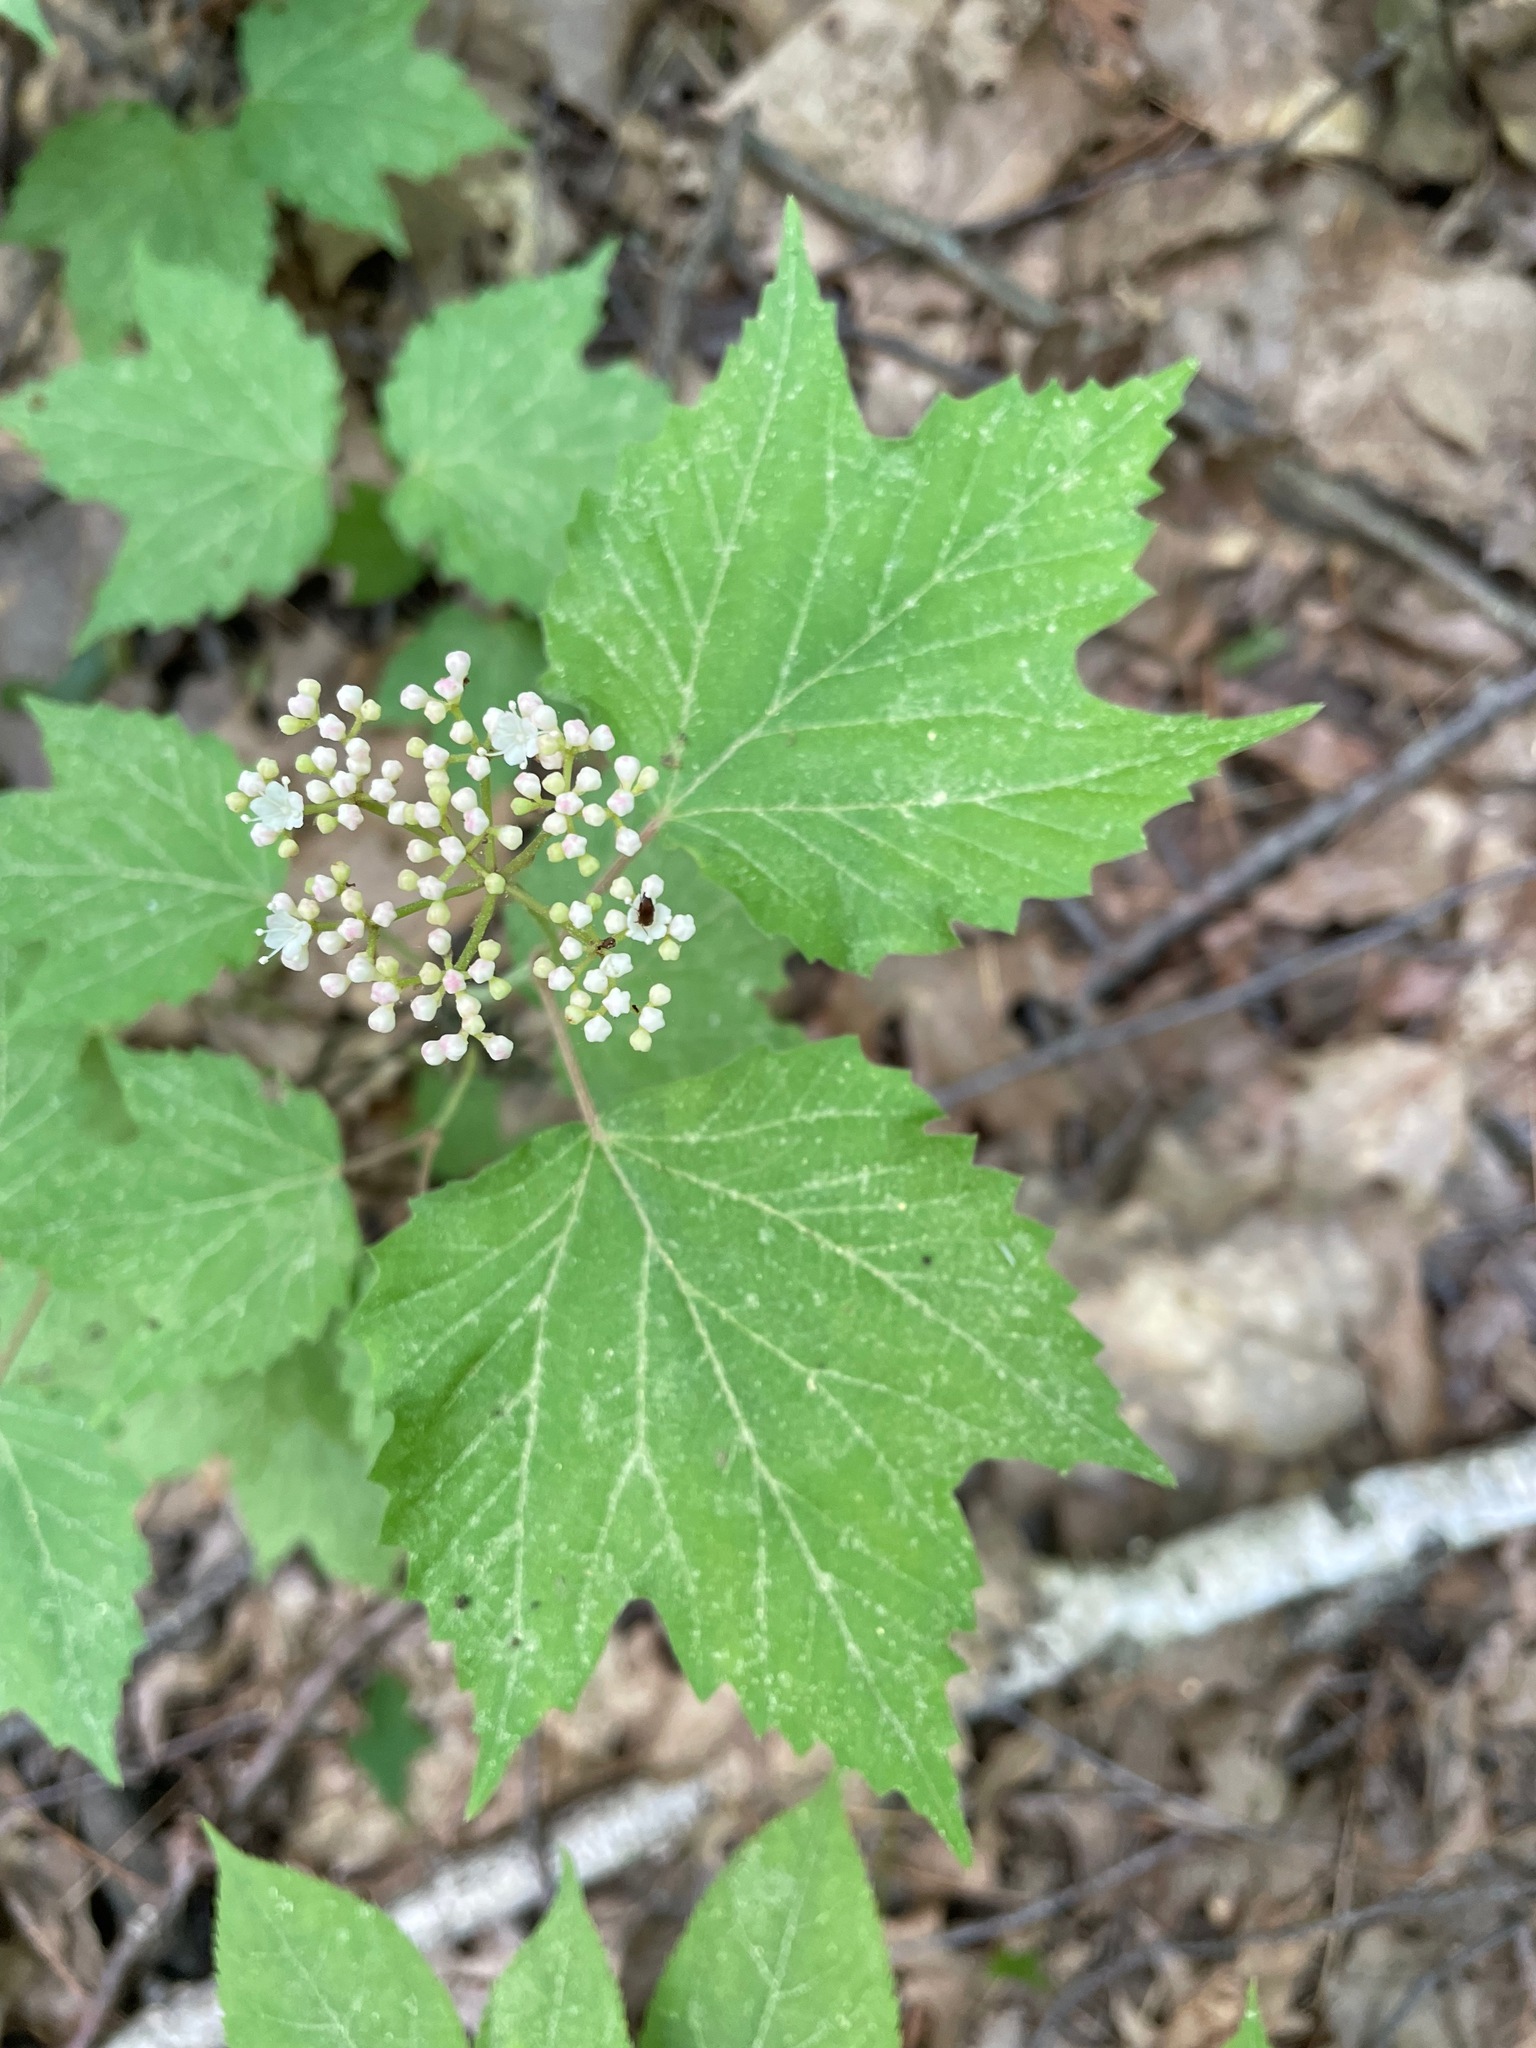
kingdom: Plantae
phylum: Tracheophyta
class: Magnoliopsida
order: Dipsacales
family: Viburnaceae
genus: Viburnum
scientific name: Viburnum acerifolium
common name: Dockmackie
